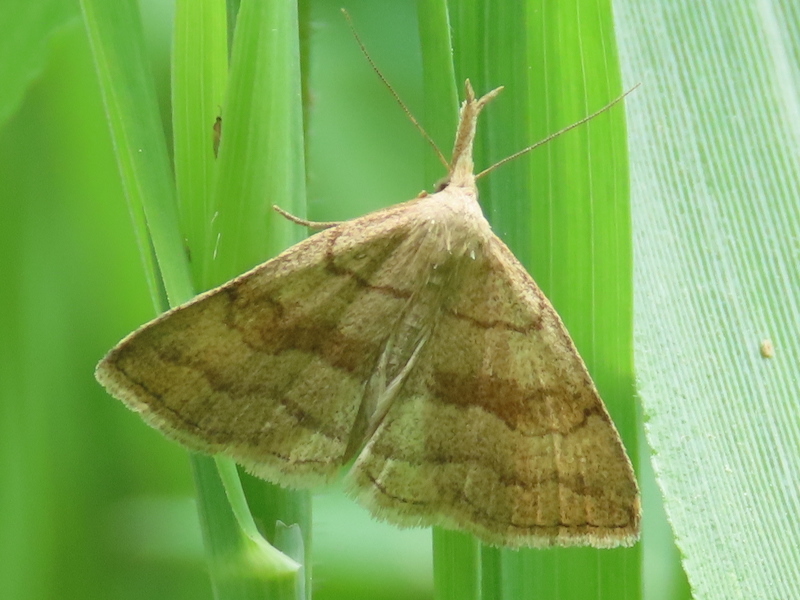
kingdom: Animalia
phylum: Arthropoda
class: Insecta
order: Lepidoptera
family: Erebidae
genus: Phalaenostola
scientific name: Phalaenostola metonalis
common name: Pale phalaenostola moth
